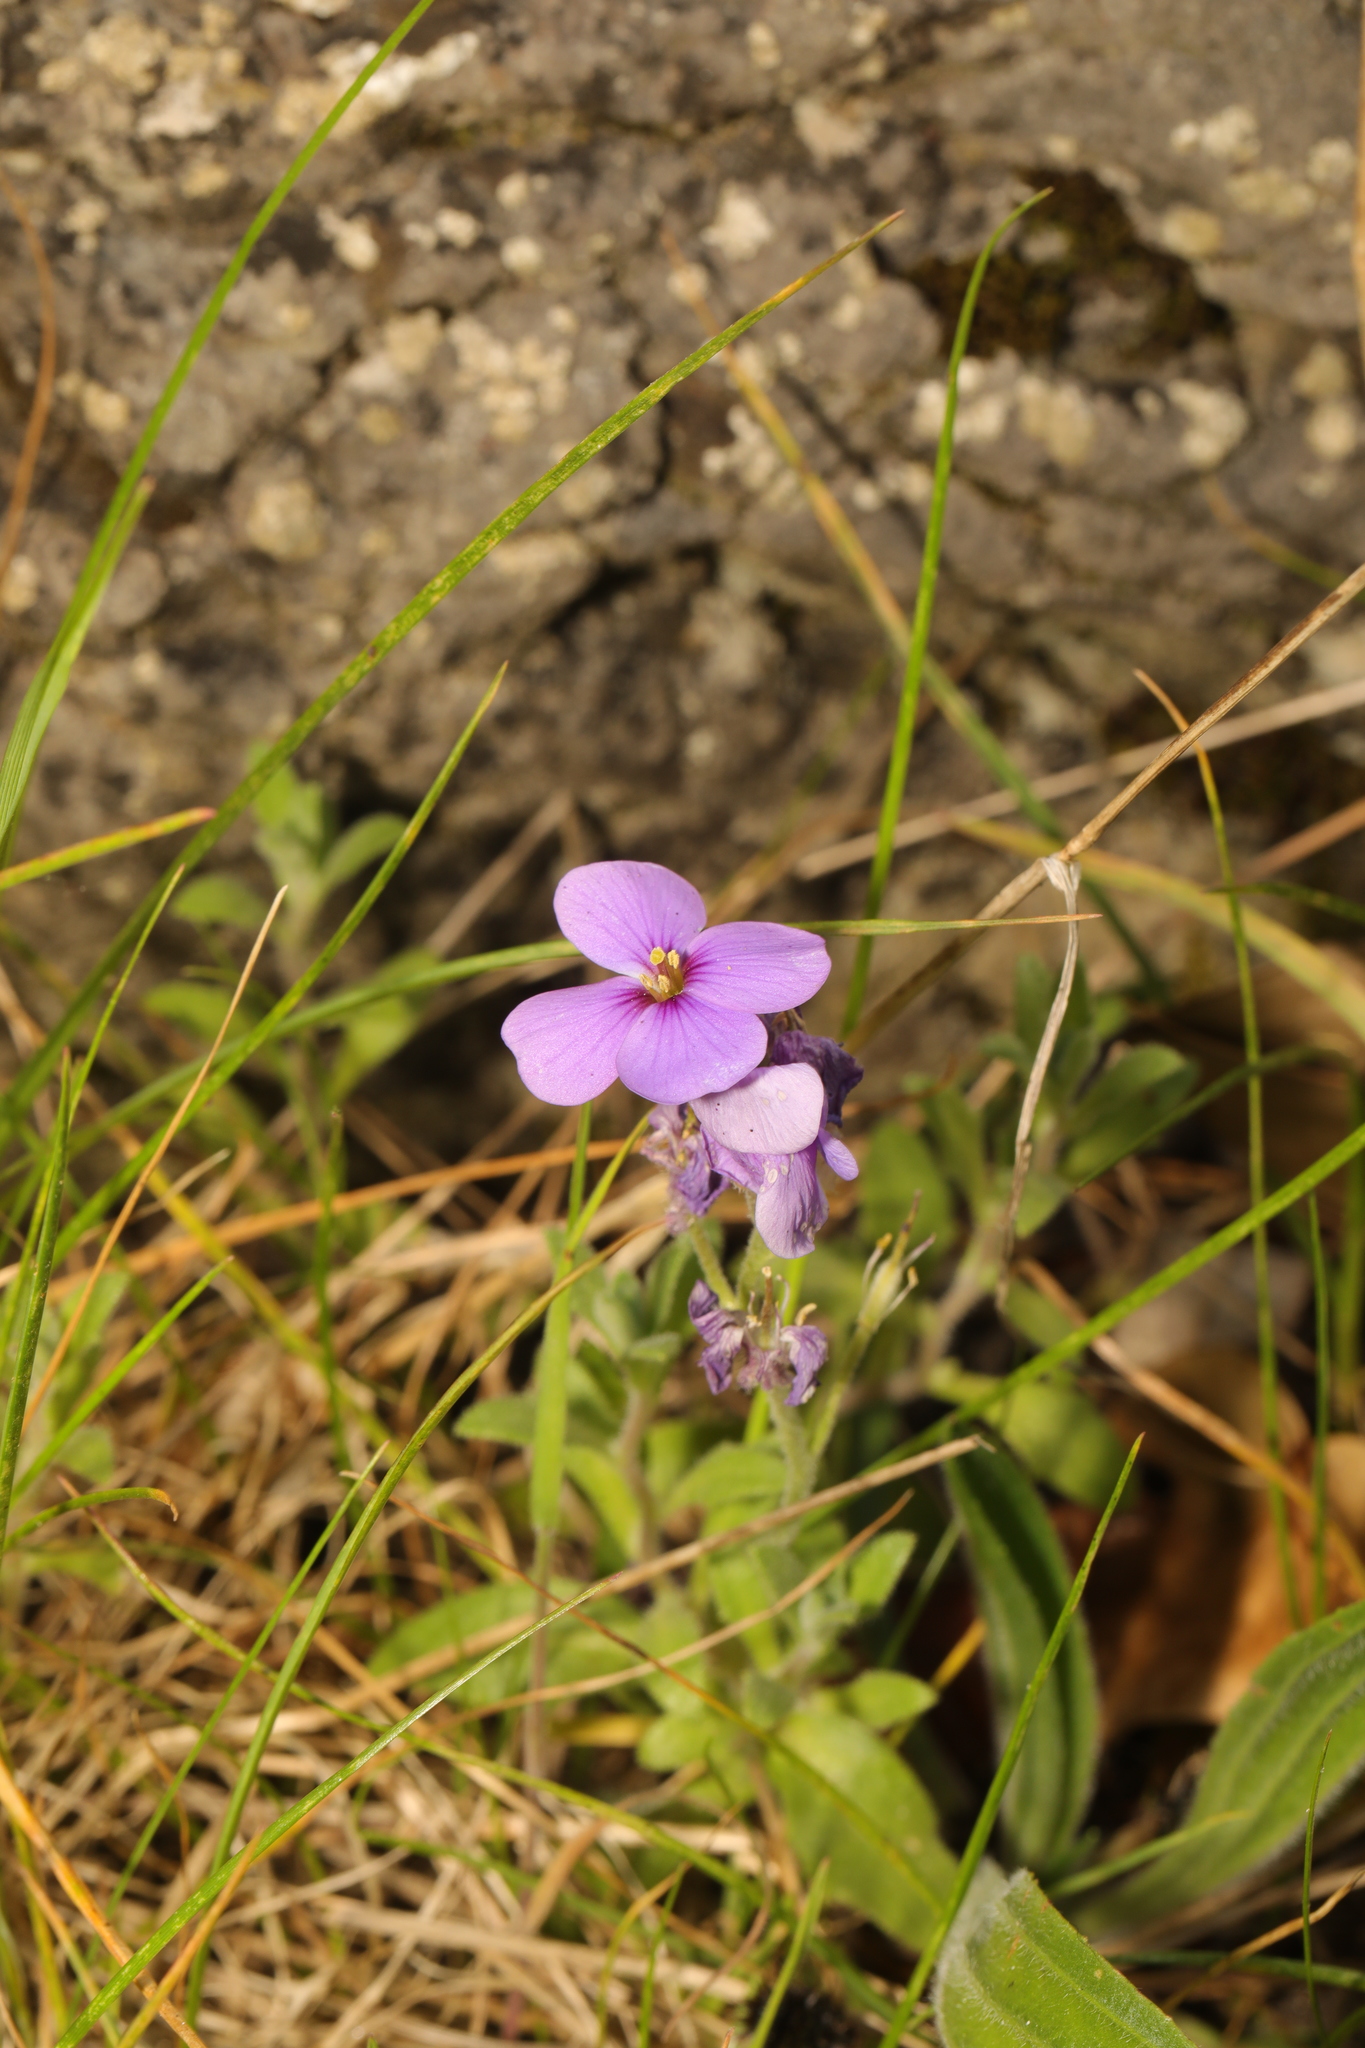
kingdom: Plantae
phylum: Tracheophyta
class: Magnoliopsida
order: Brassicales
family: Brassicaceae
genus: Aubrieta
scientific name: Aubrieta deltoidea
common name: Aubretia
